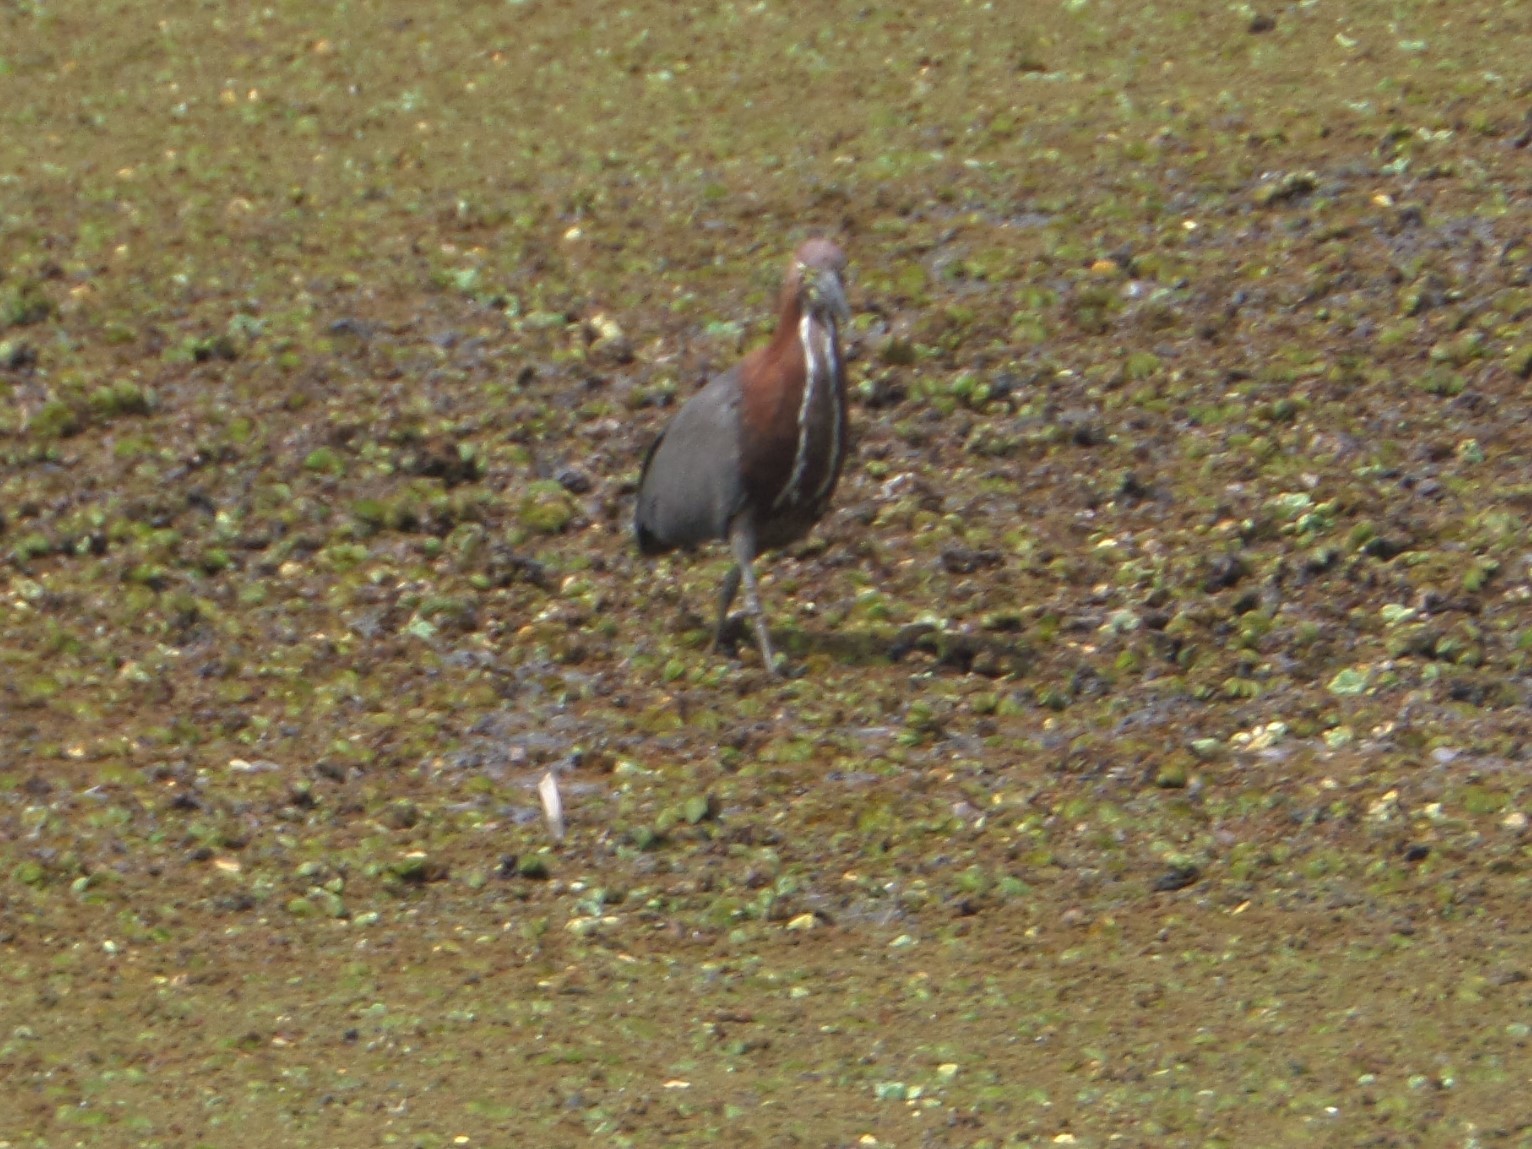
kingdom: Animalia
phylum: Chordata
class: Aves
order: Pelecaniformes
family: Ardeidae
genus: Tigrisoma
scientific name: Tigrisoma lineatum
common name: Rufescent tiger-heron
